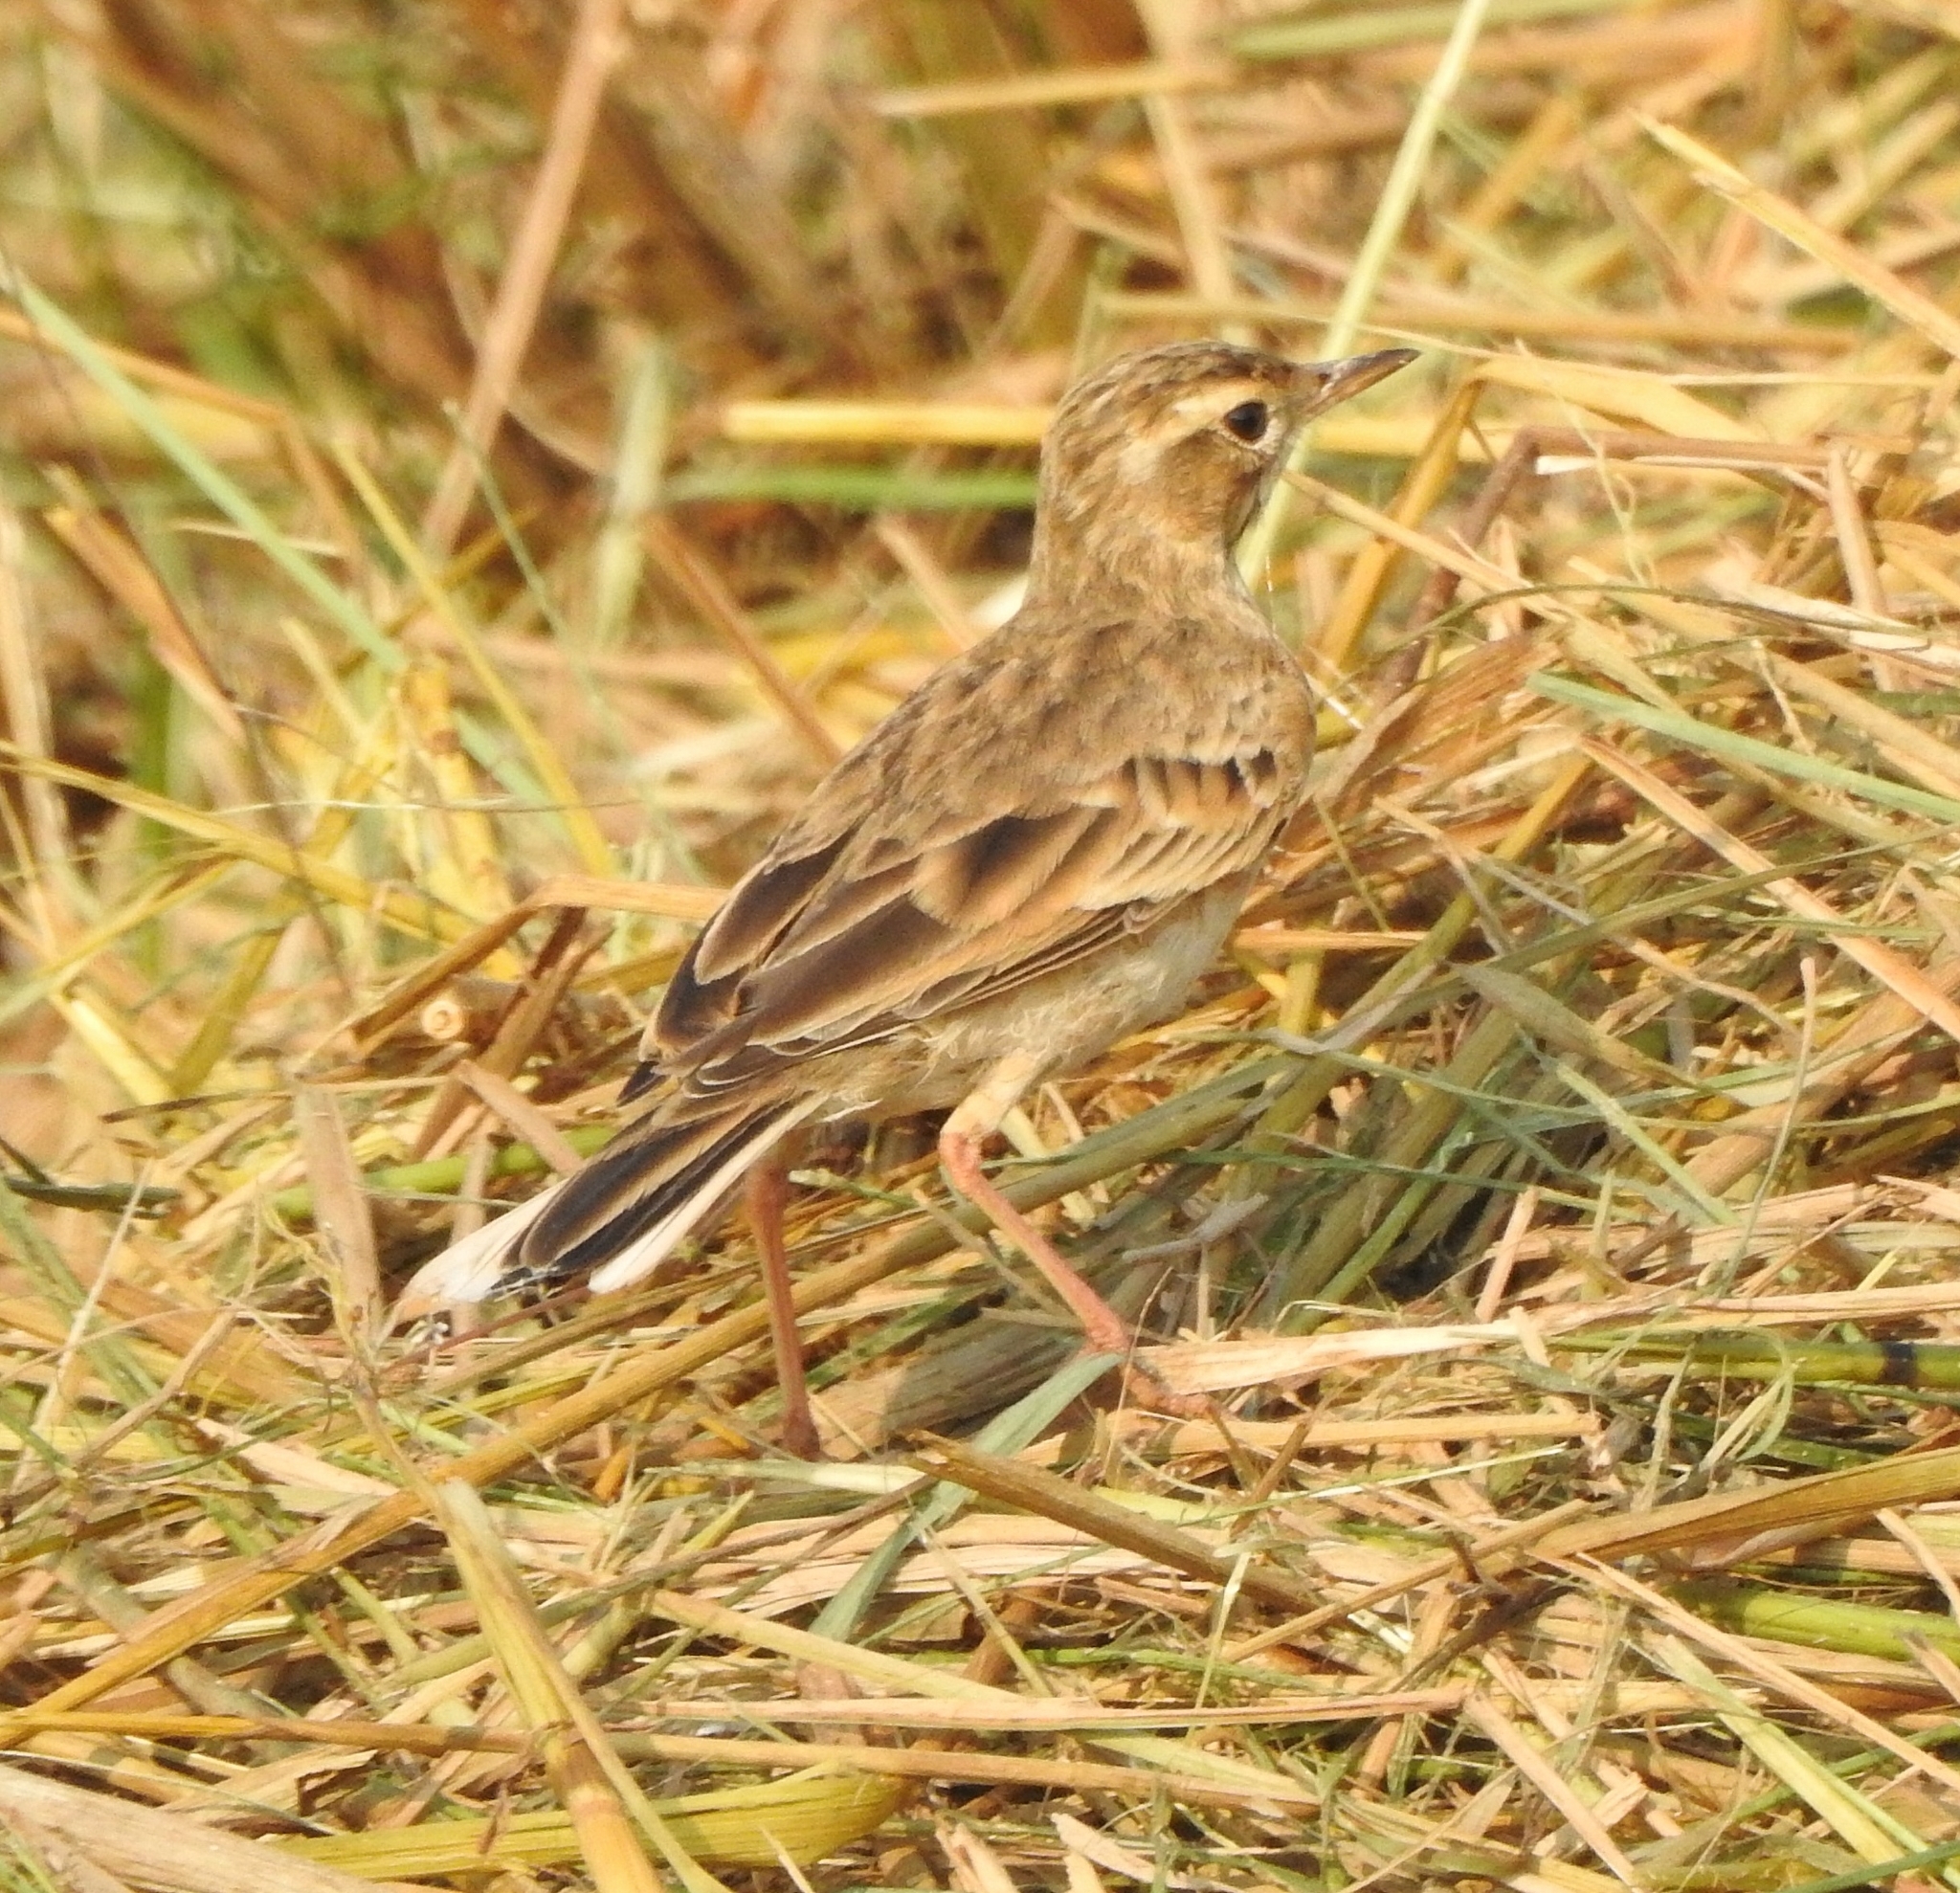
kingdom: Animalia
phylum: Chordata
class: Aves
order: Passeriformes
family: Motacillidae
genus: Anthus
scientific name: Anthus rufulus
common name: Paddyfield pipit
